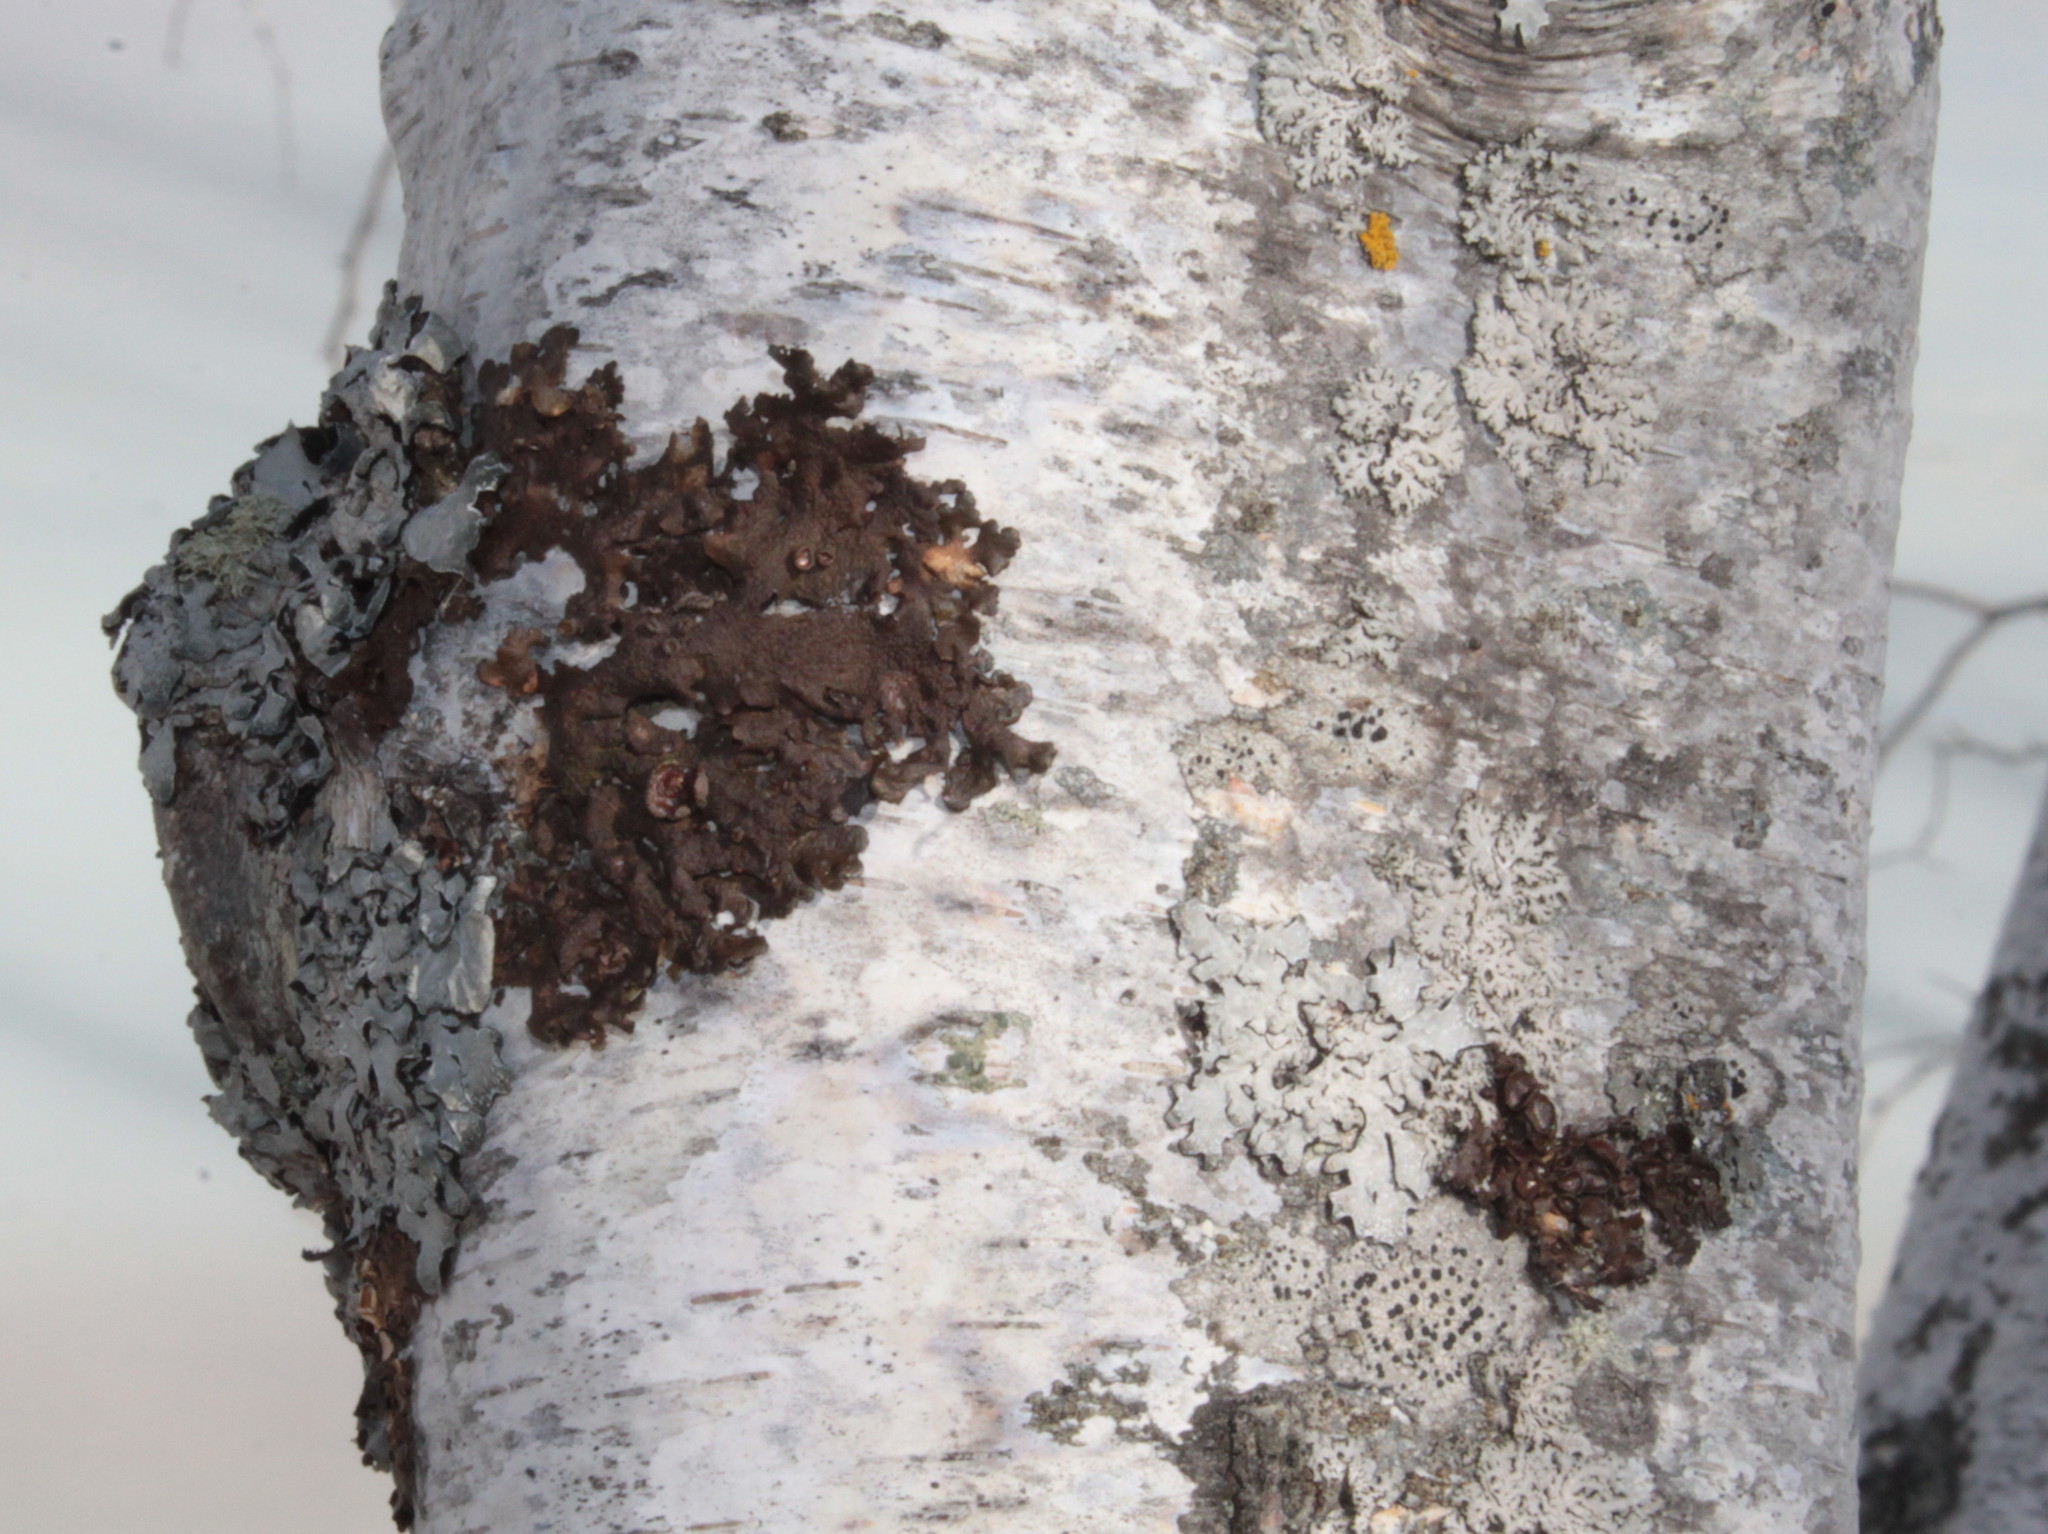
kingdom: Fungi
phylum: Ascomycota
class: Lecanoromycetes
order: Lecanorales
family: Parmeliaceae
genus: Melanohalea
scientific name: Melanohalea septentrionalis
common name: Northern camouflage lichen
